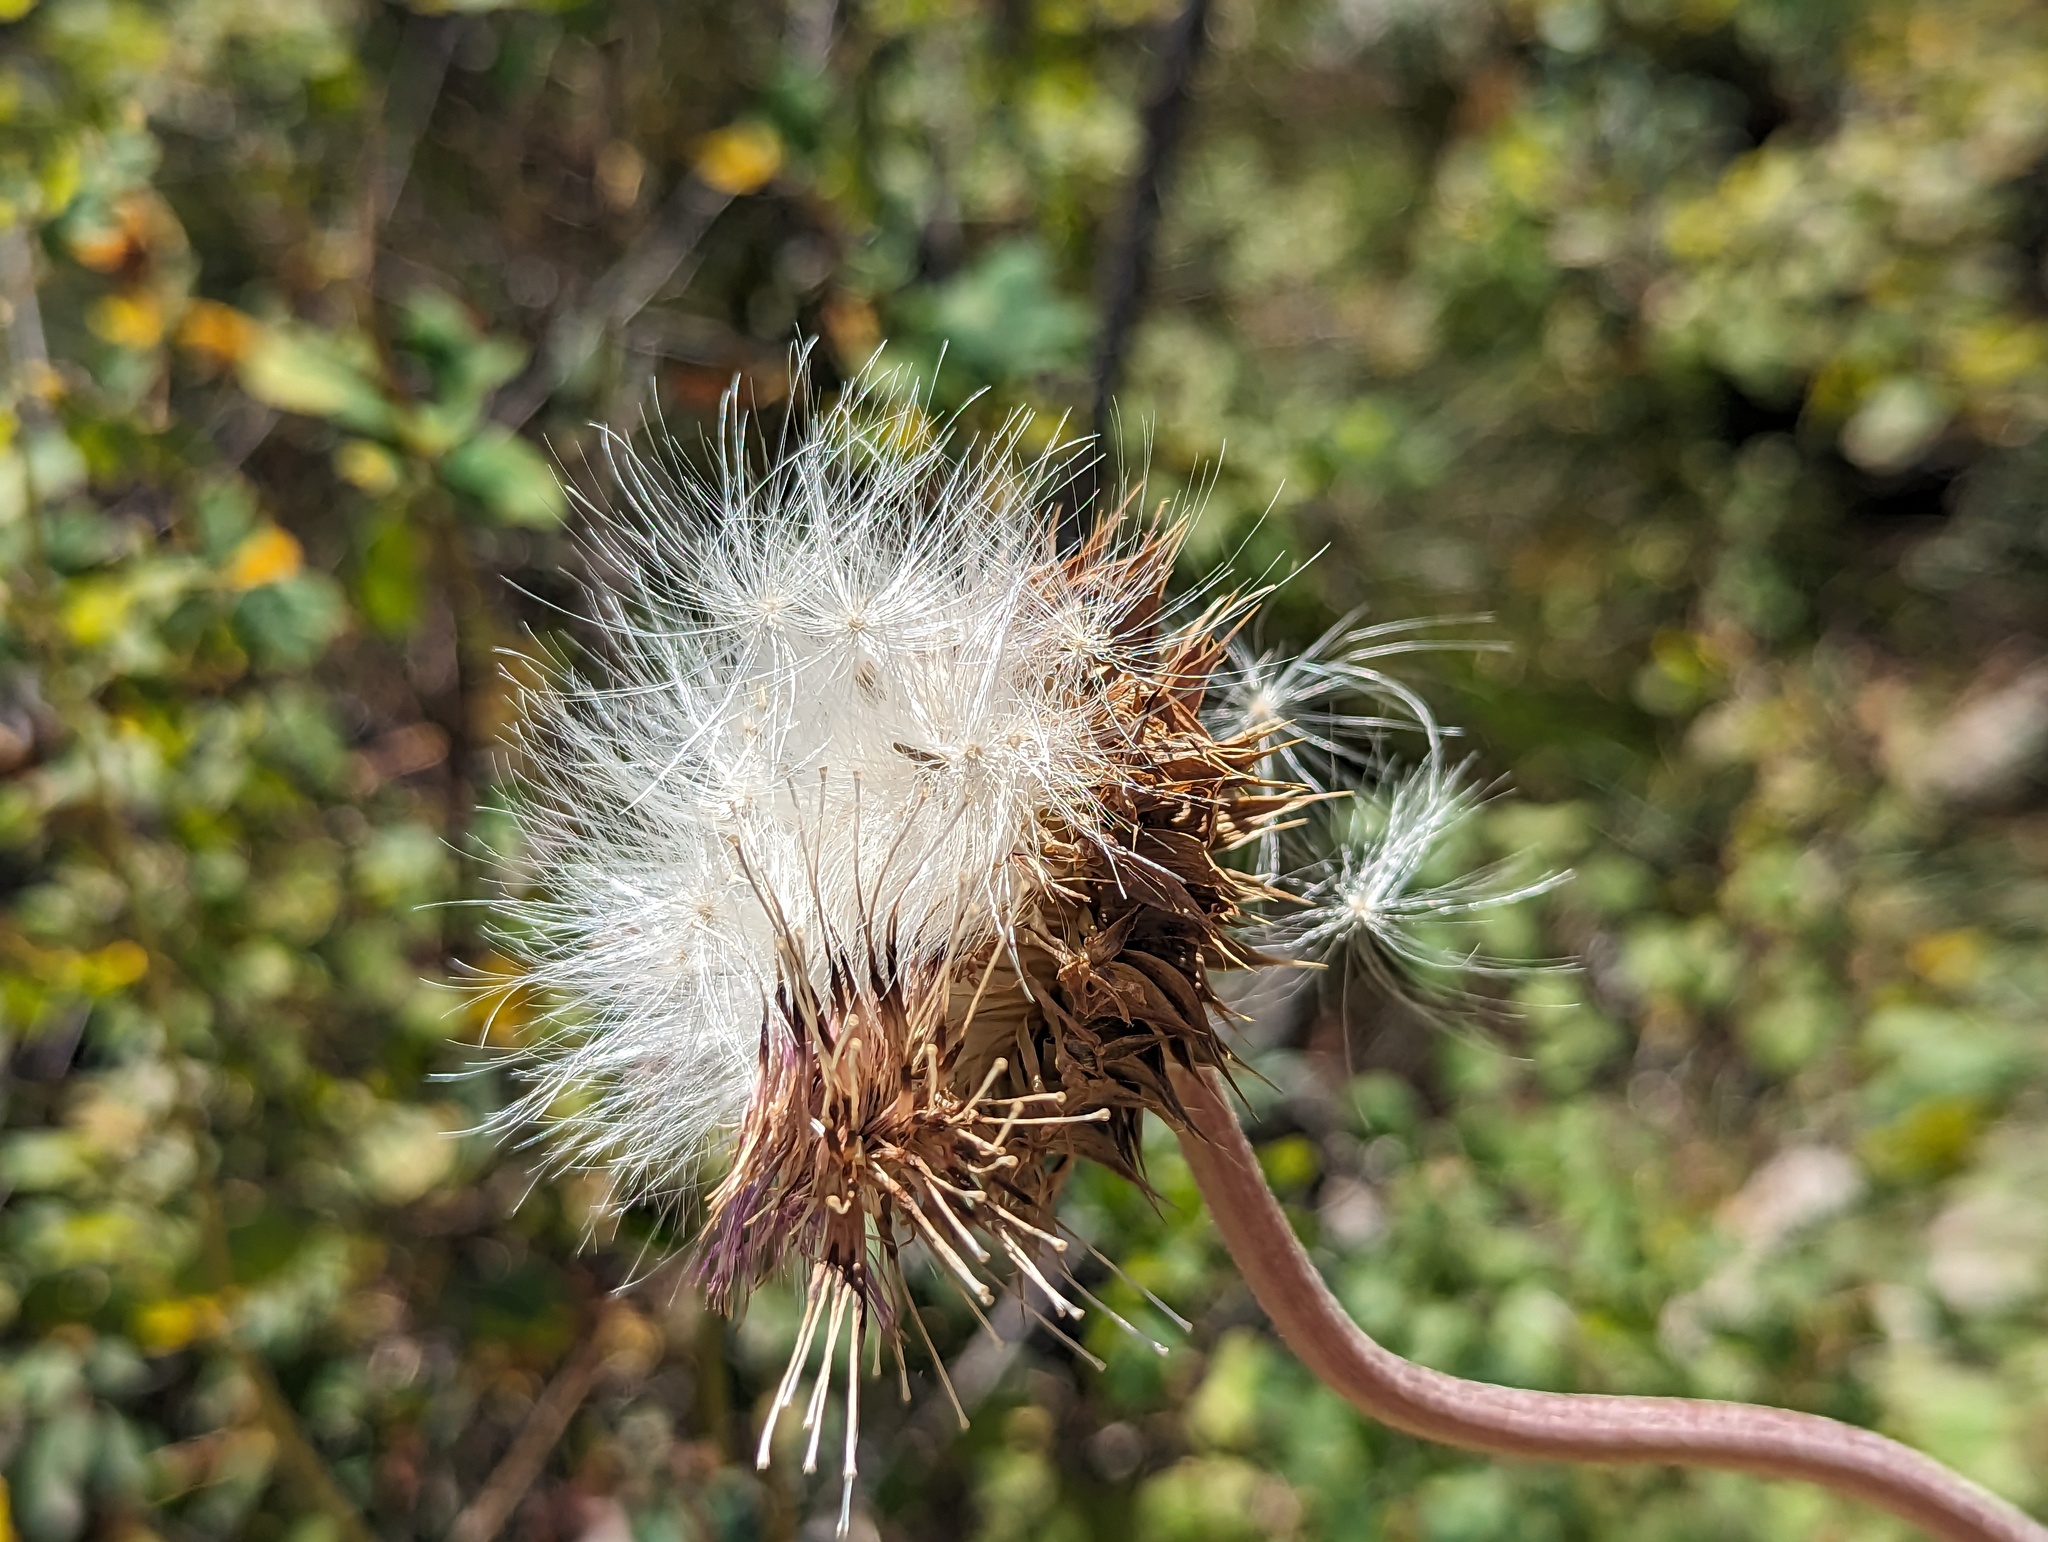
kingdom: Plantae
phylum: Tracheophyta
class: Magnoliopsida
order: Asterales
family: Asteraceae
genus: Carduus
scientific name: Carduus nutans
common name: Musk thistle
